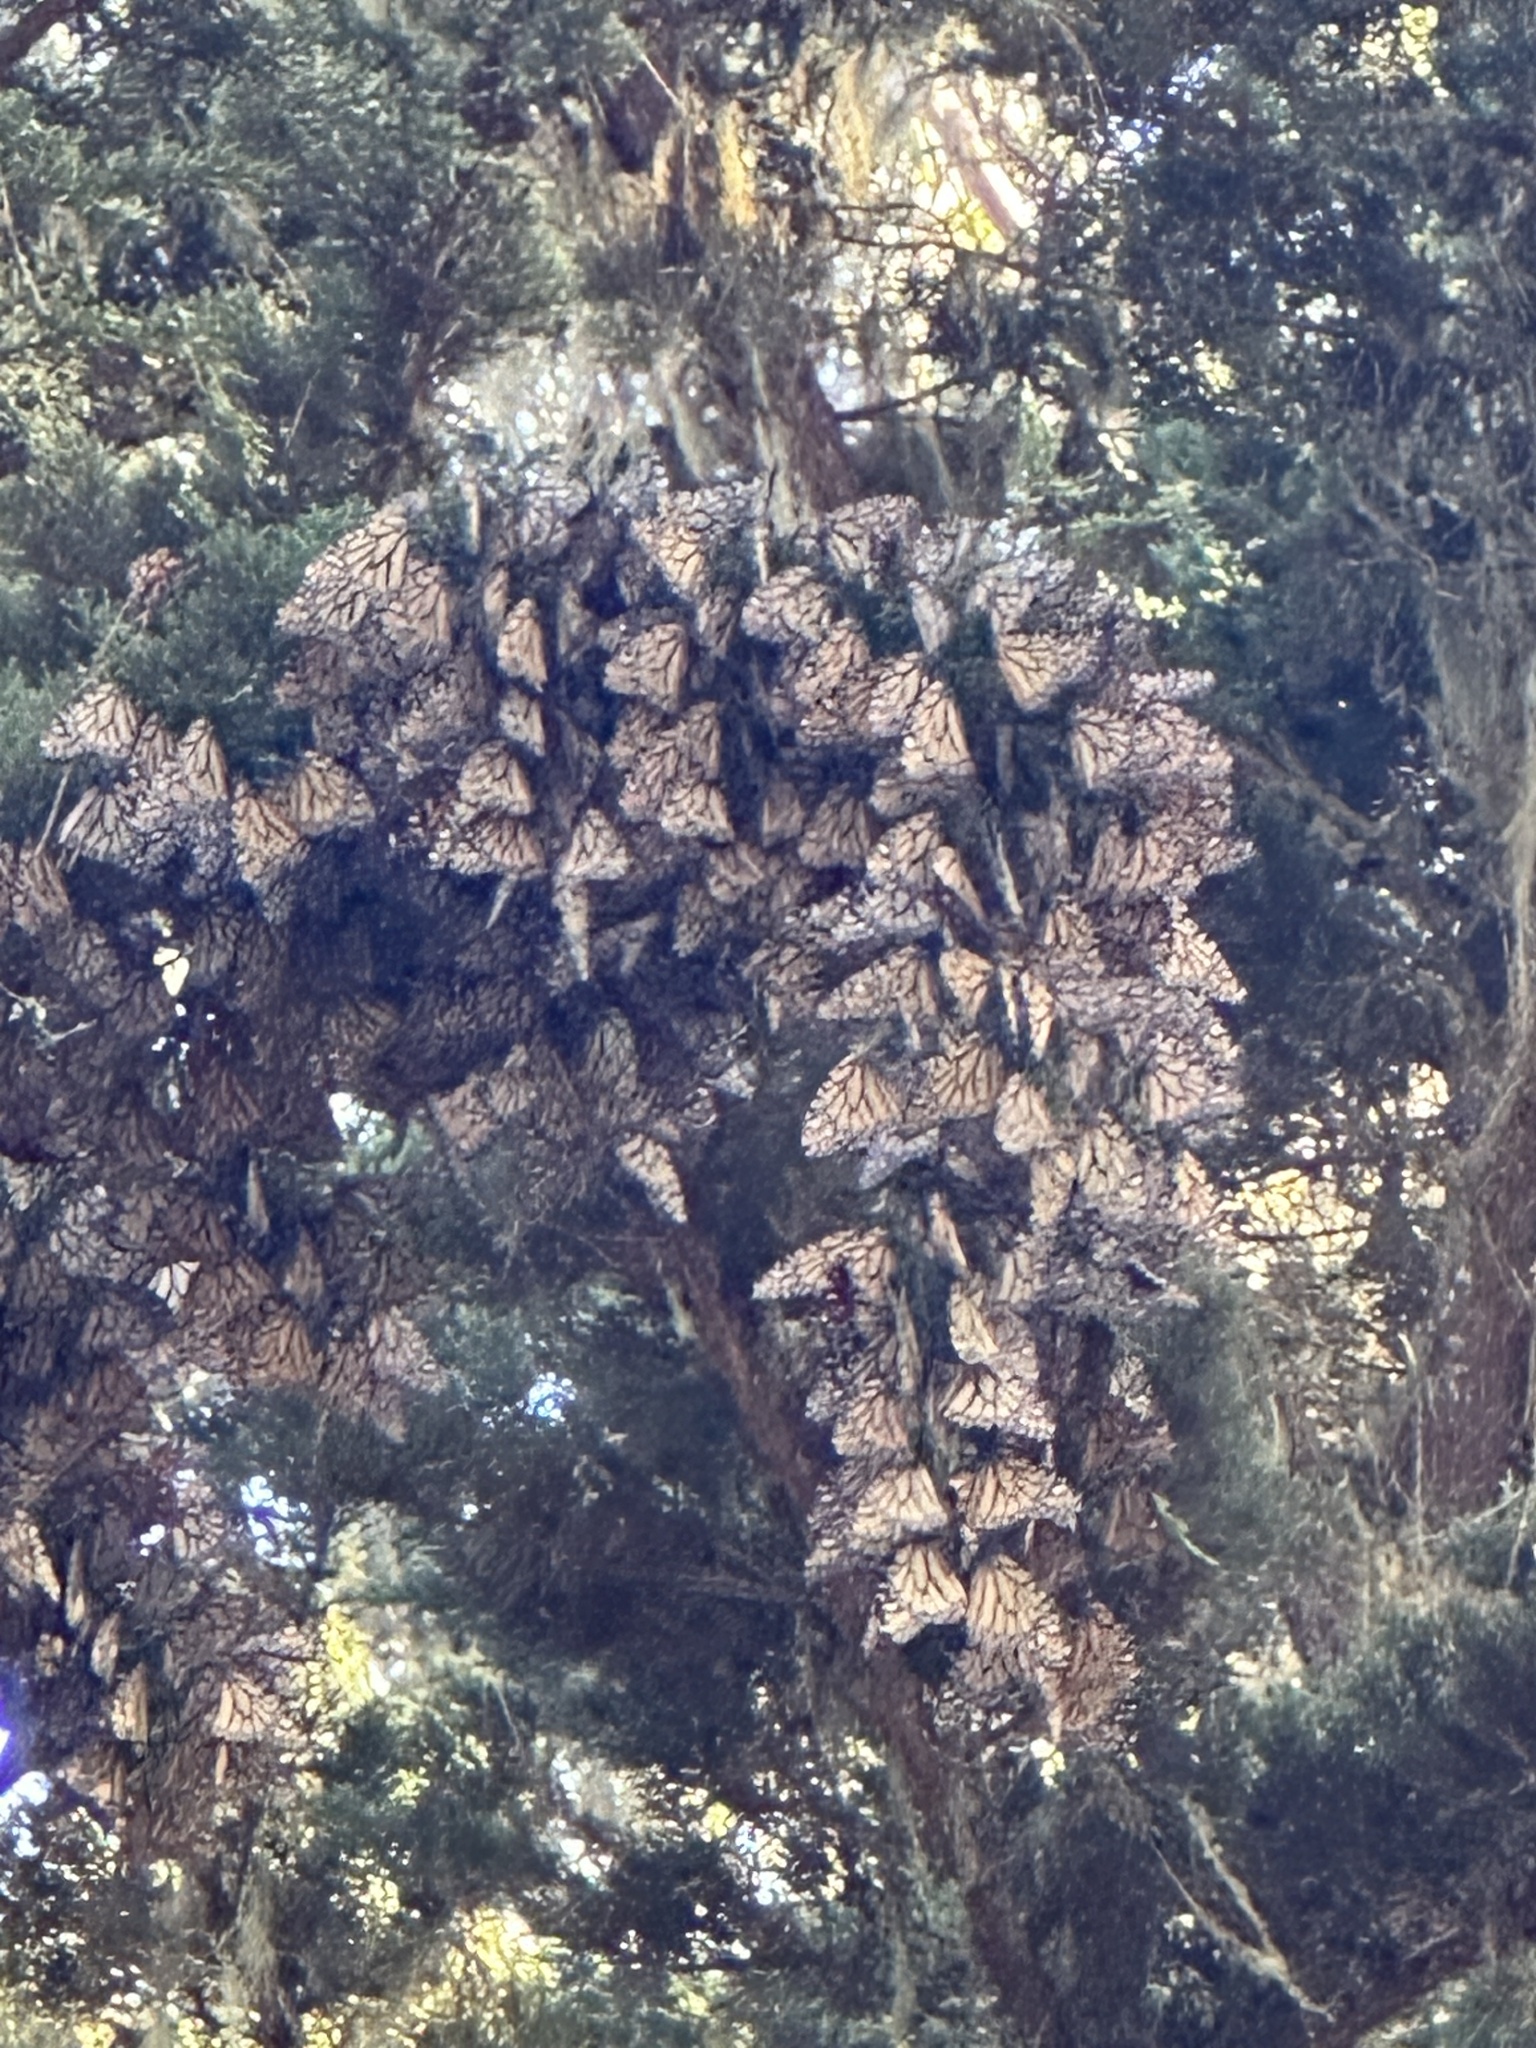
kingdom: Animalia
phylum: Arthropoda
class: Insecta
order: Lepidoptera
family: Nymphalidae
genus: Danaus
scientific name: Danaus plexippus
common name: Monarch
